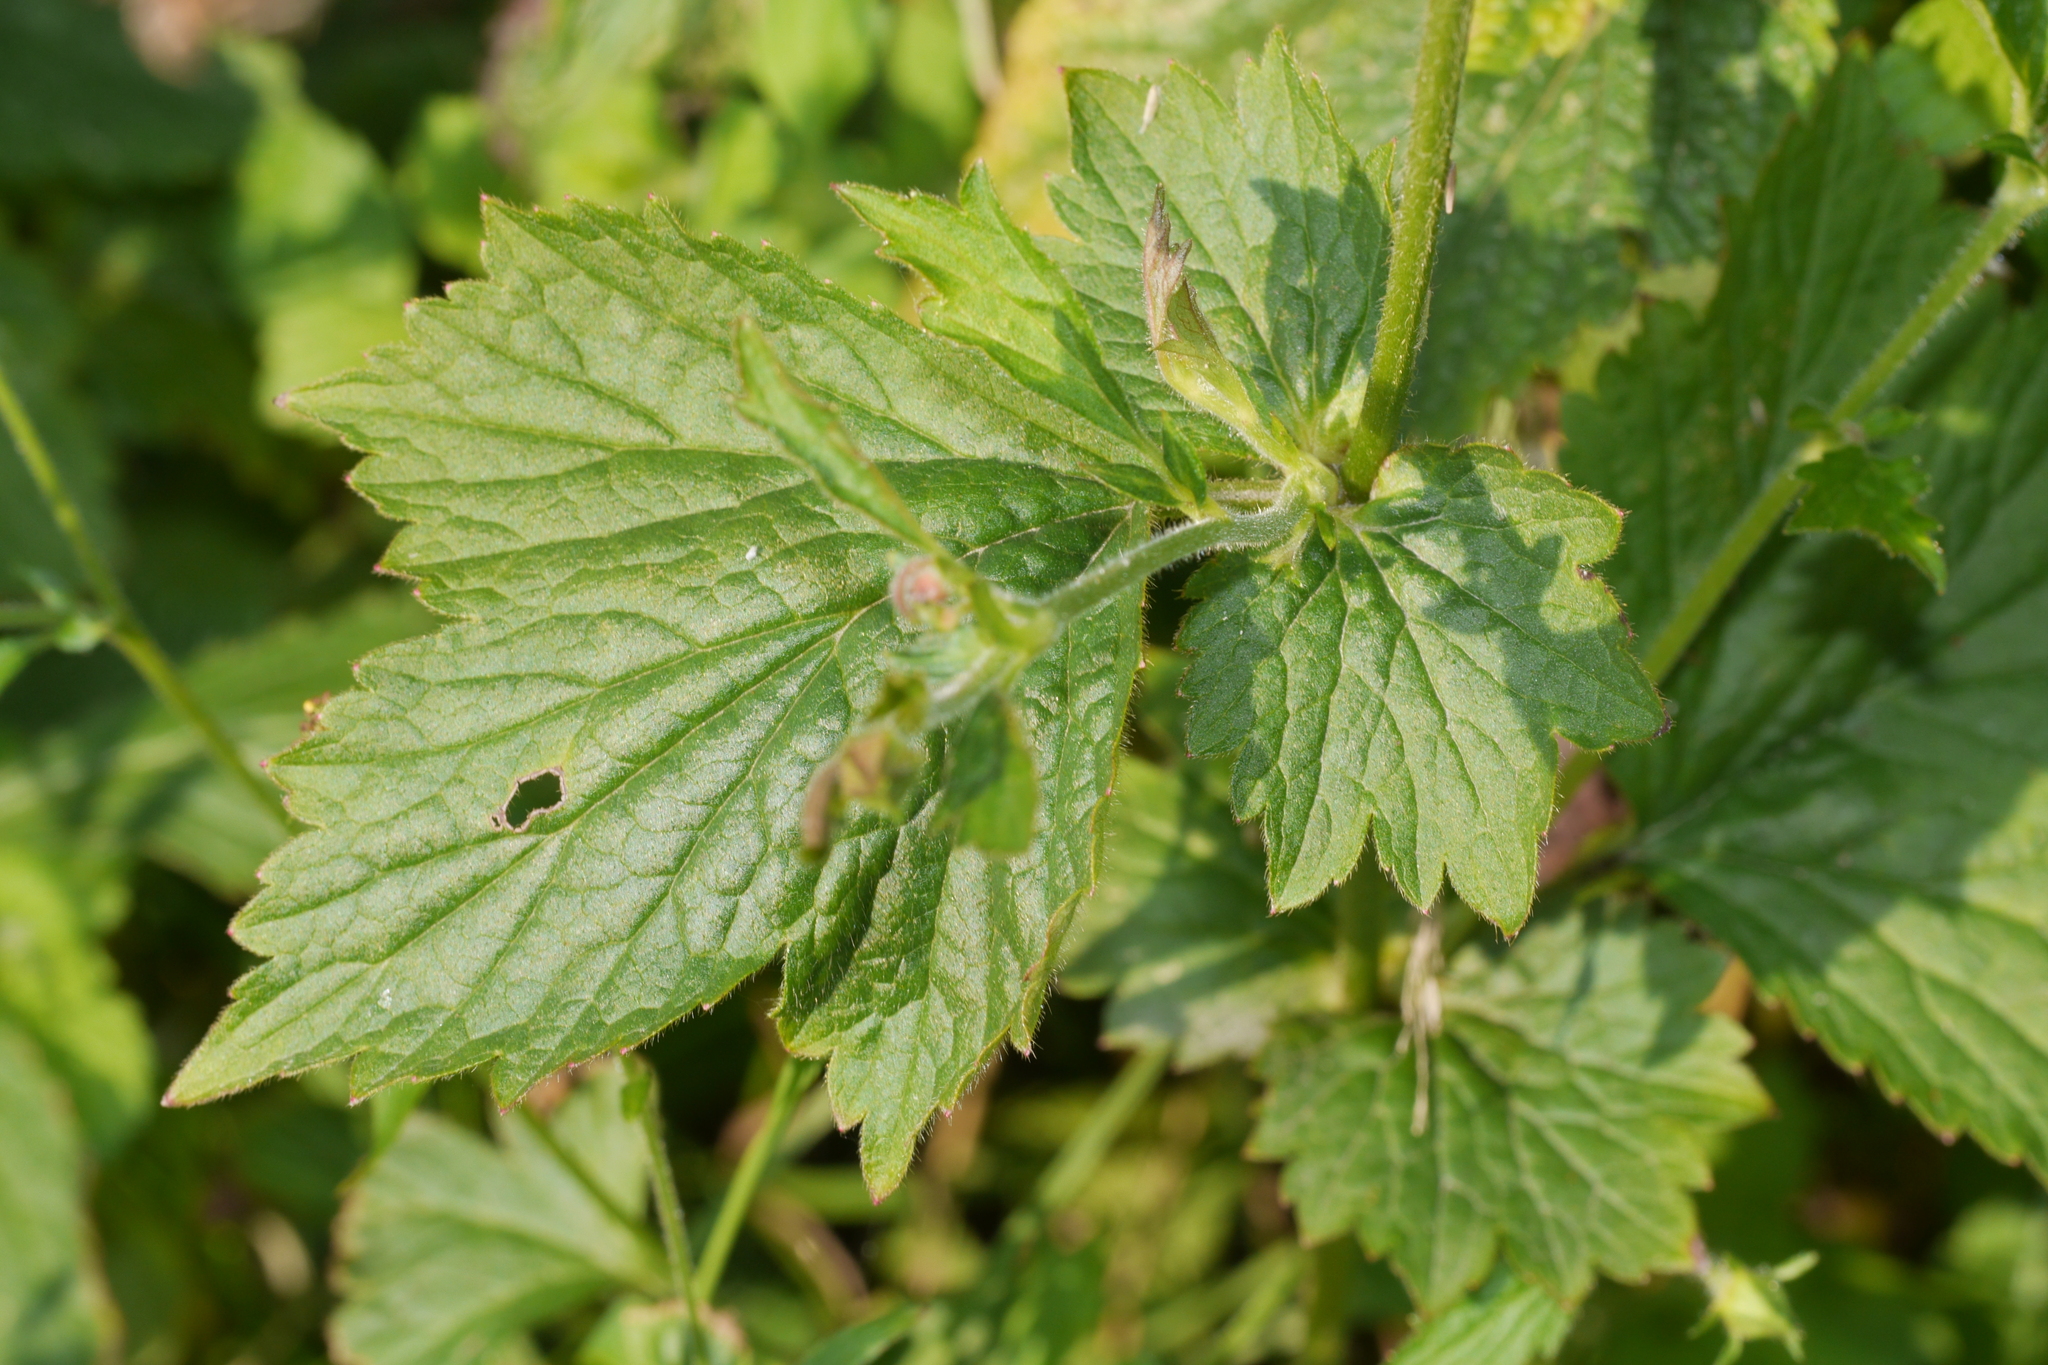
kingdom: Plantae
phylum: Tracheophyta
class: Magnoliopsida
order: Rosales
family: Rosaceae
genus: Geum
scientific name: Geum urbanum
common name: Wood avens
